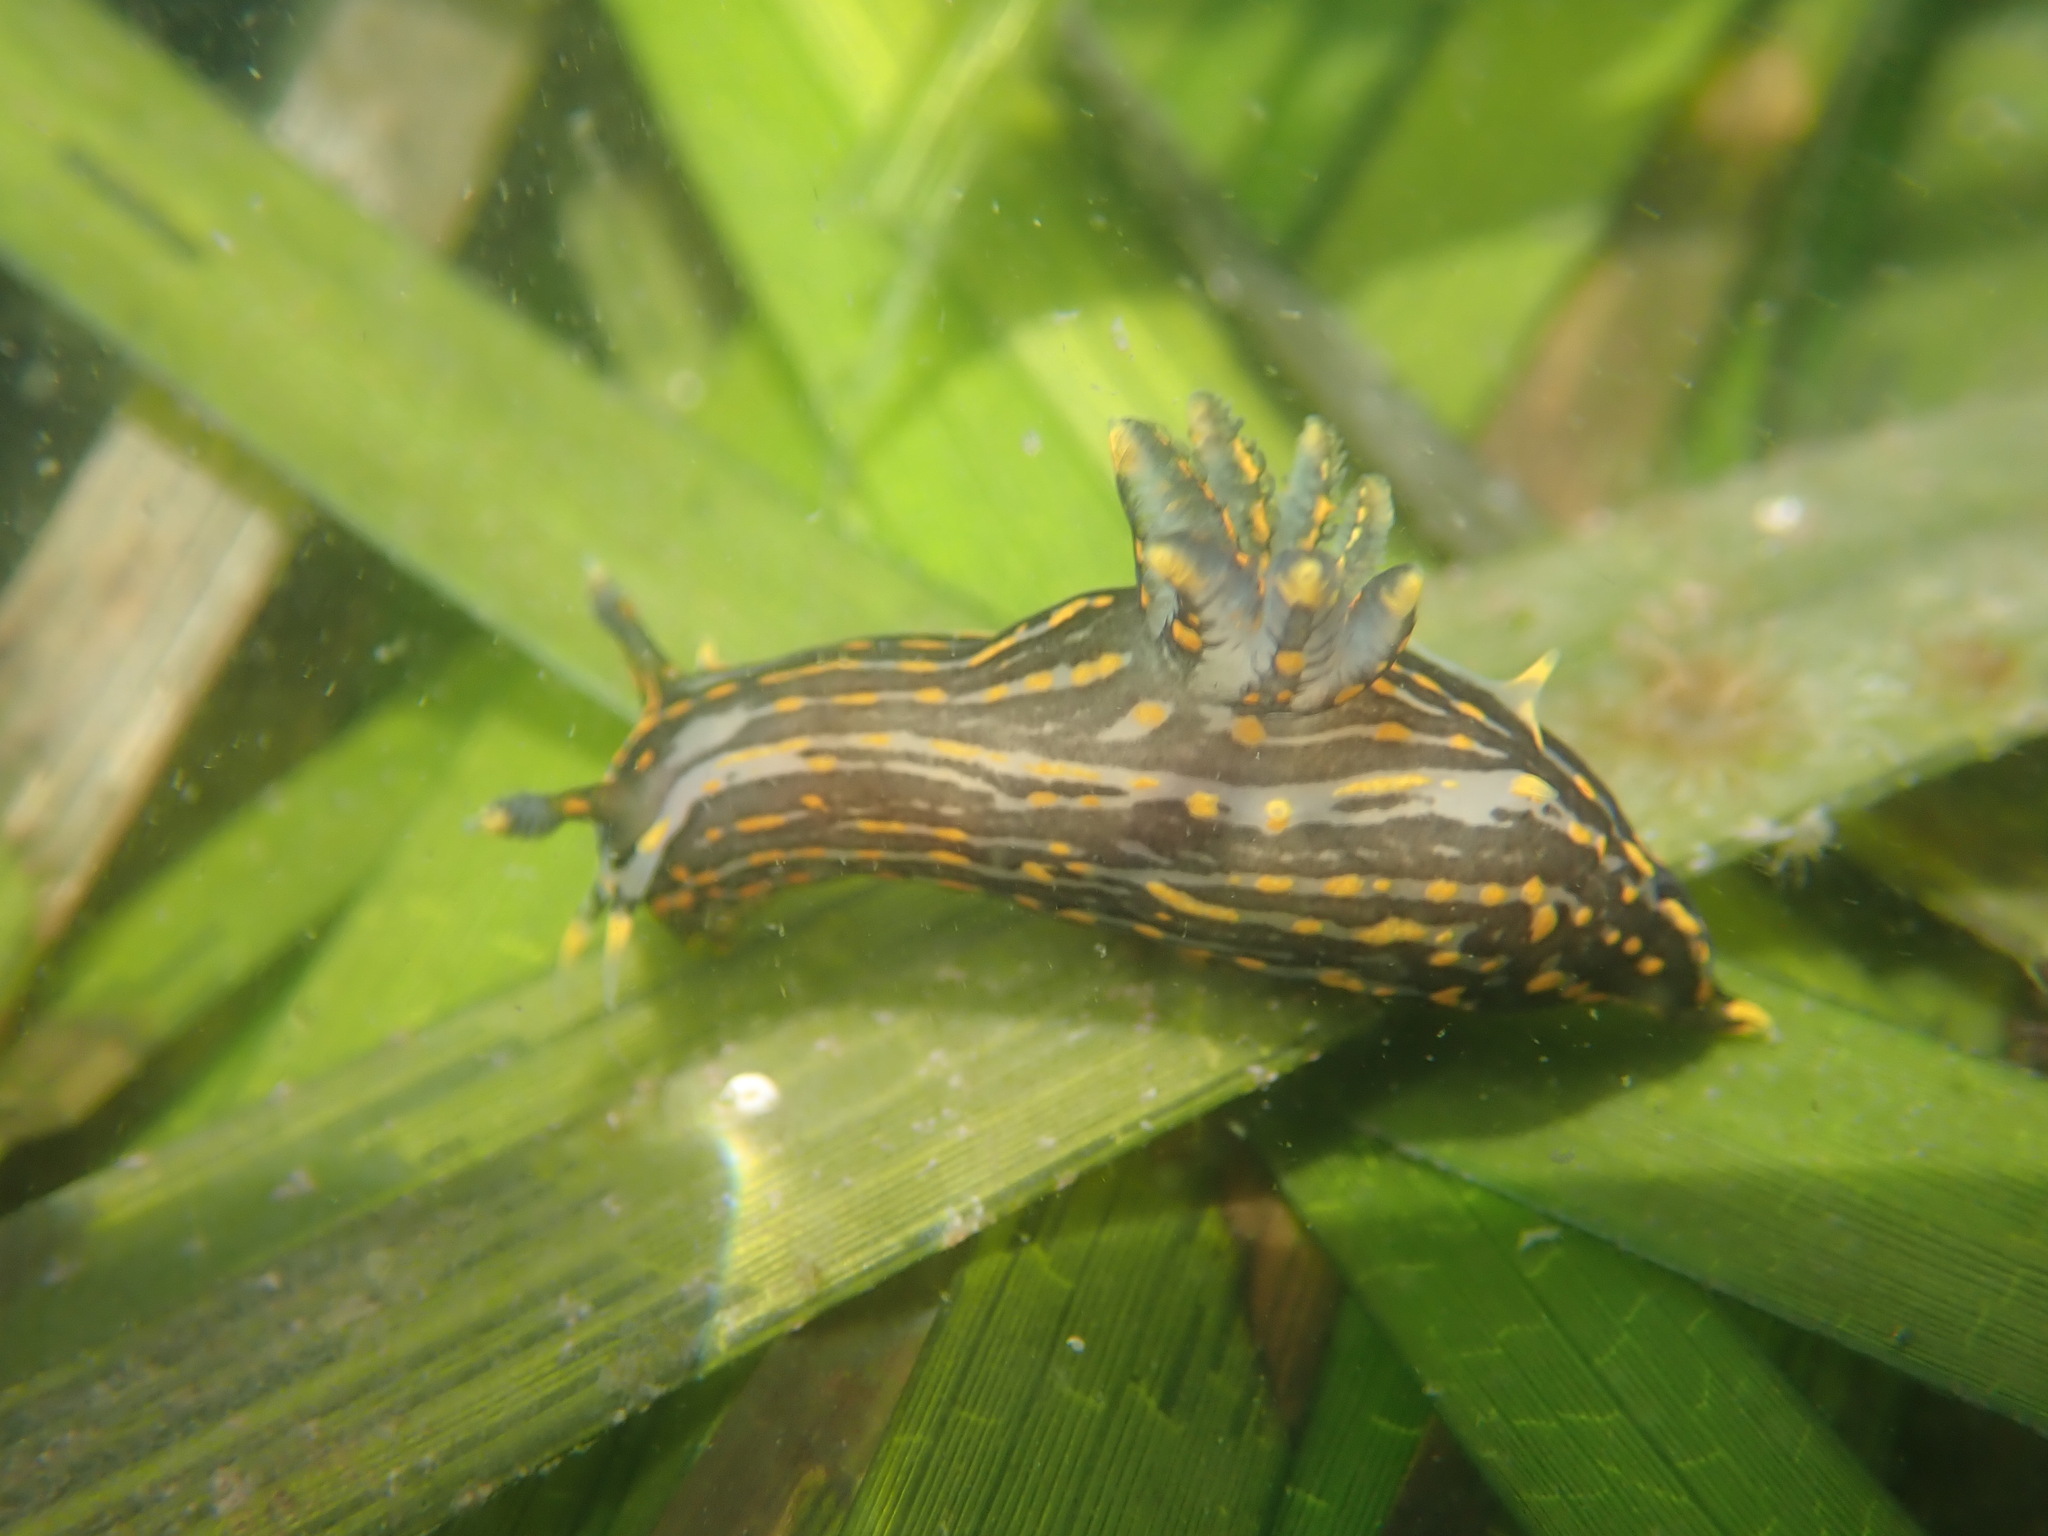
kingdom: Animalia
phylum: Mollusca
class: Gastropoda
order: Nudibranchia
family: Polyceridae
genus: Polycera
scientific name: Polycera atra
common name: Orange-spike polycera
